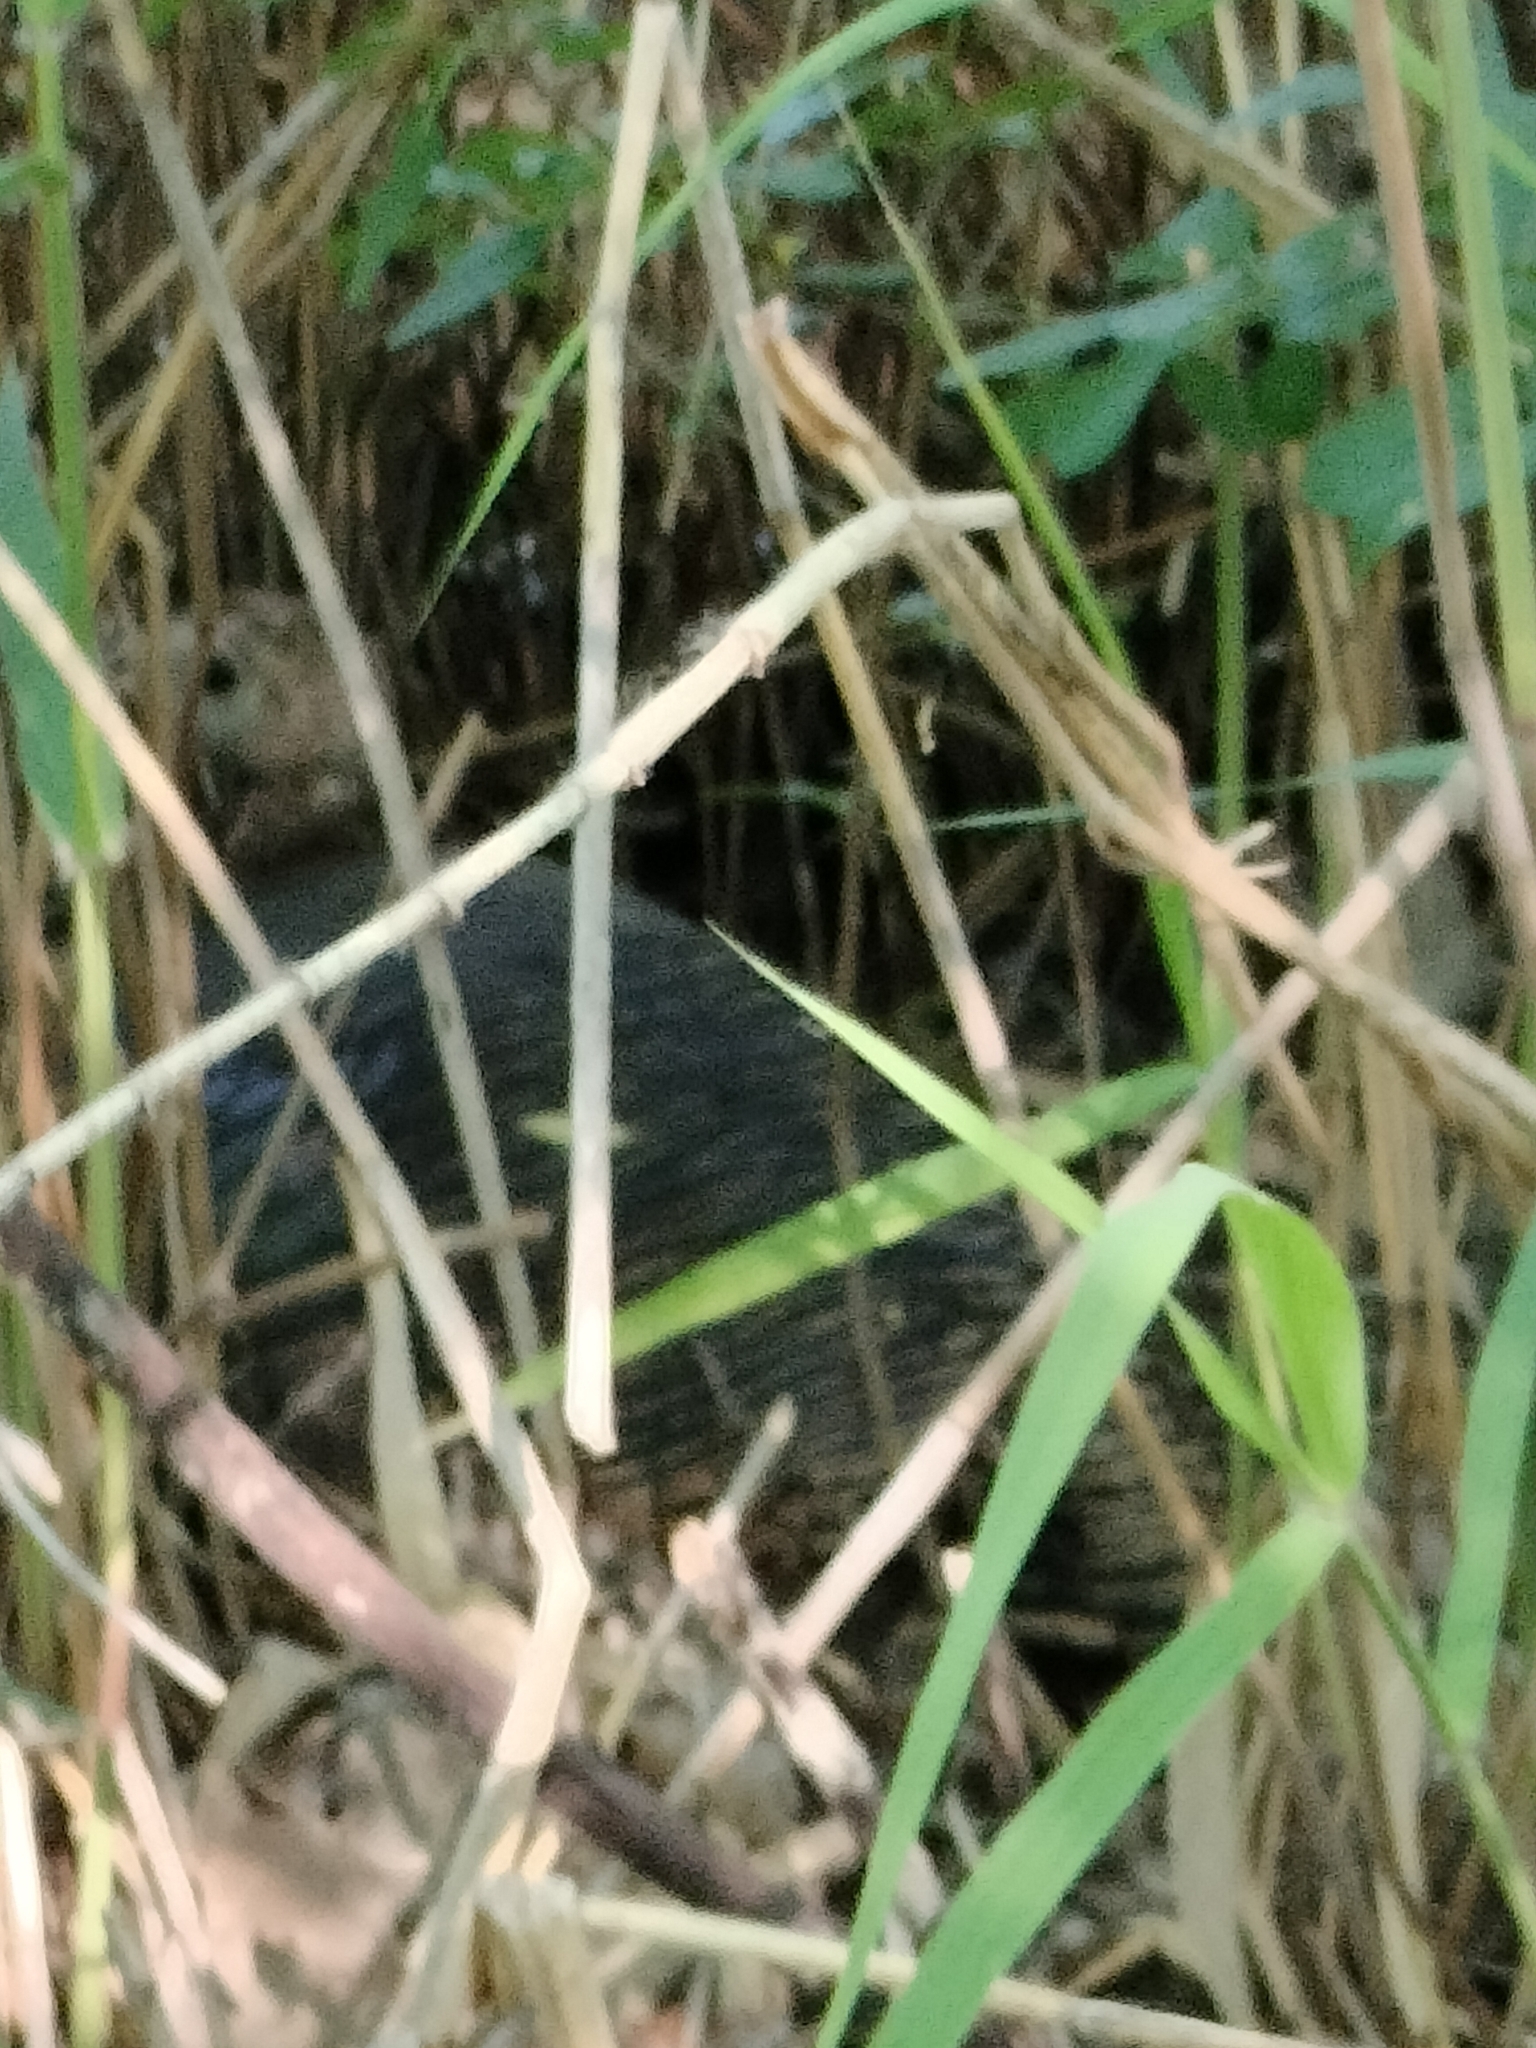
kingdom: Animalia
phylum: Chordata
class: Aves
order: Galliformes
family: Phasianidae
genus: Meleagris
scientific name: Meleagris gallopavo
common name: Wild turkey
